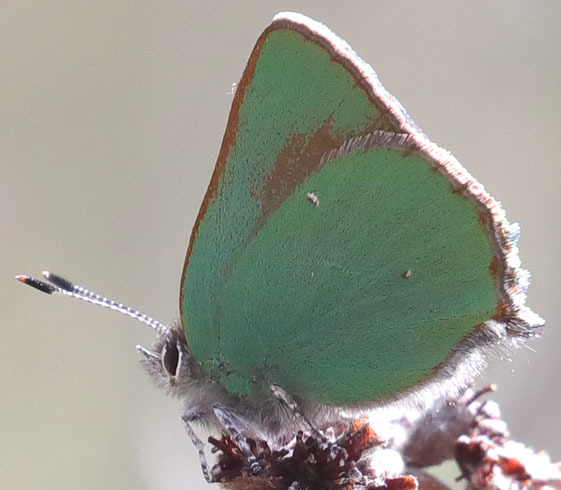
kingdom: Animalia
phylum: Arthropoda
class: Insecta
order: Lepidoptera
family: Lycaenidae
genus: Callophrys
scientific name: Callophrys dumetorum
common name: Bramble hairstreak
